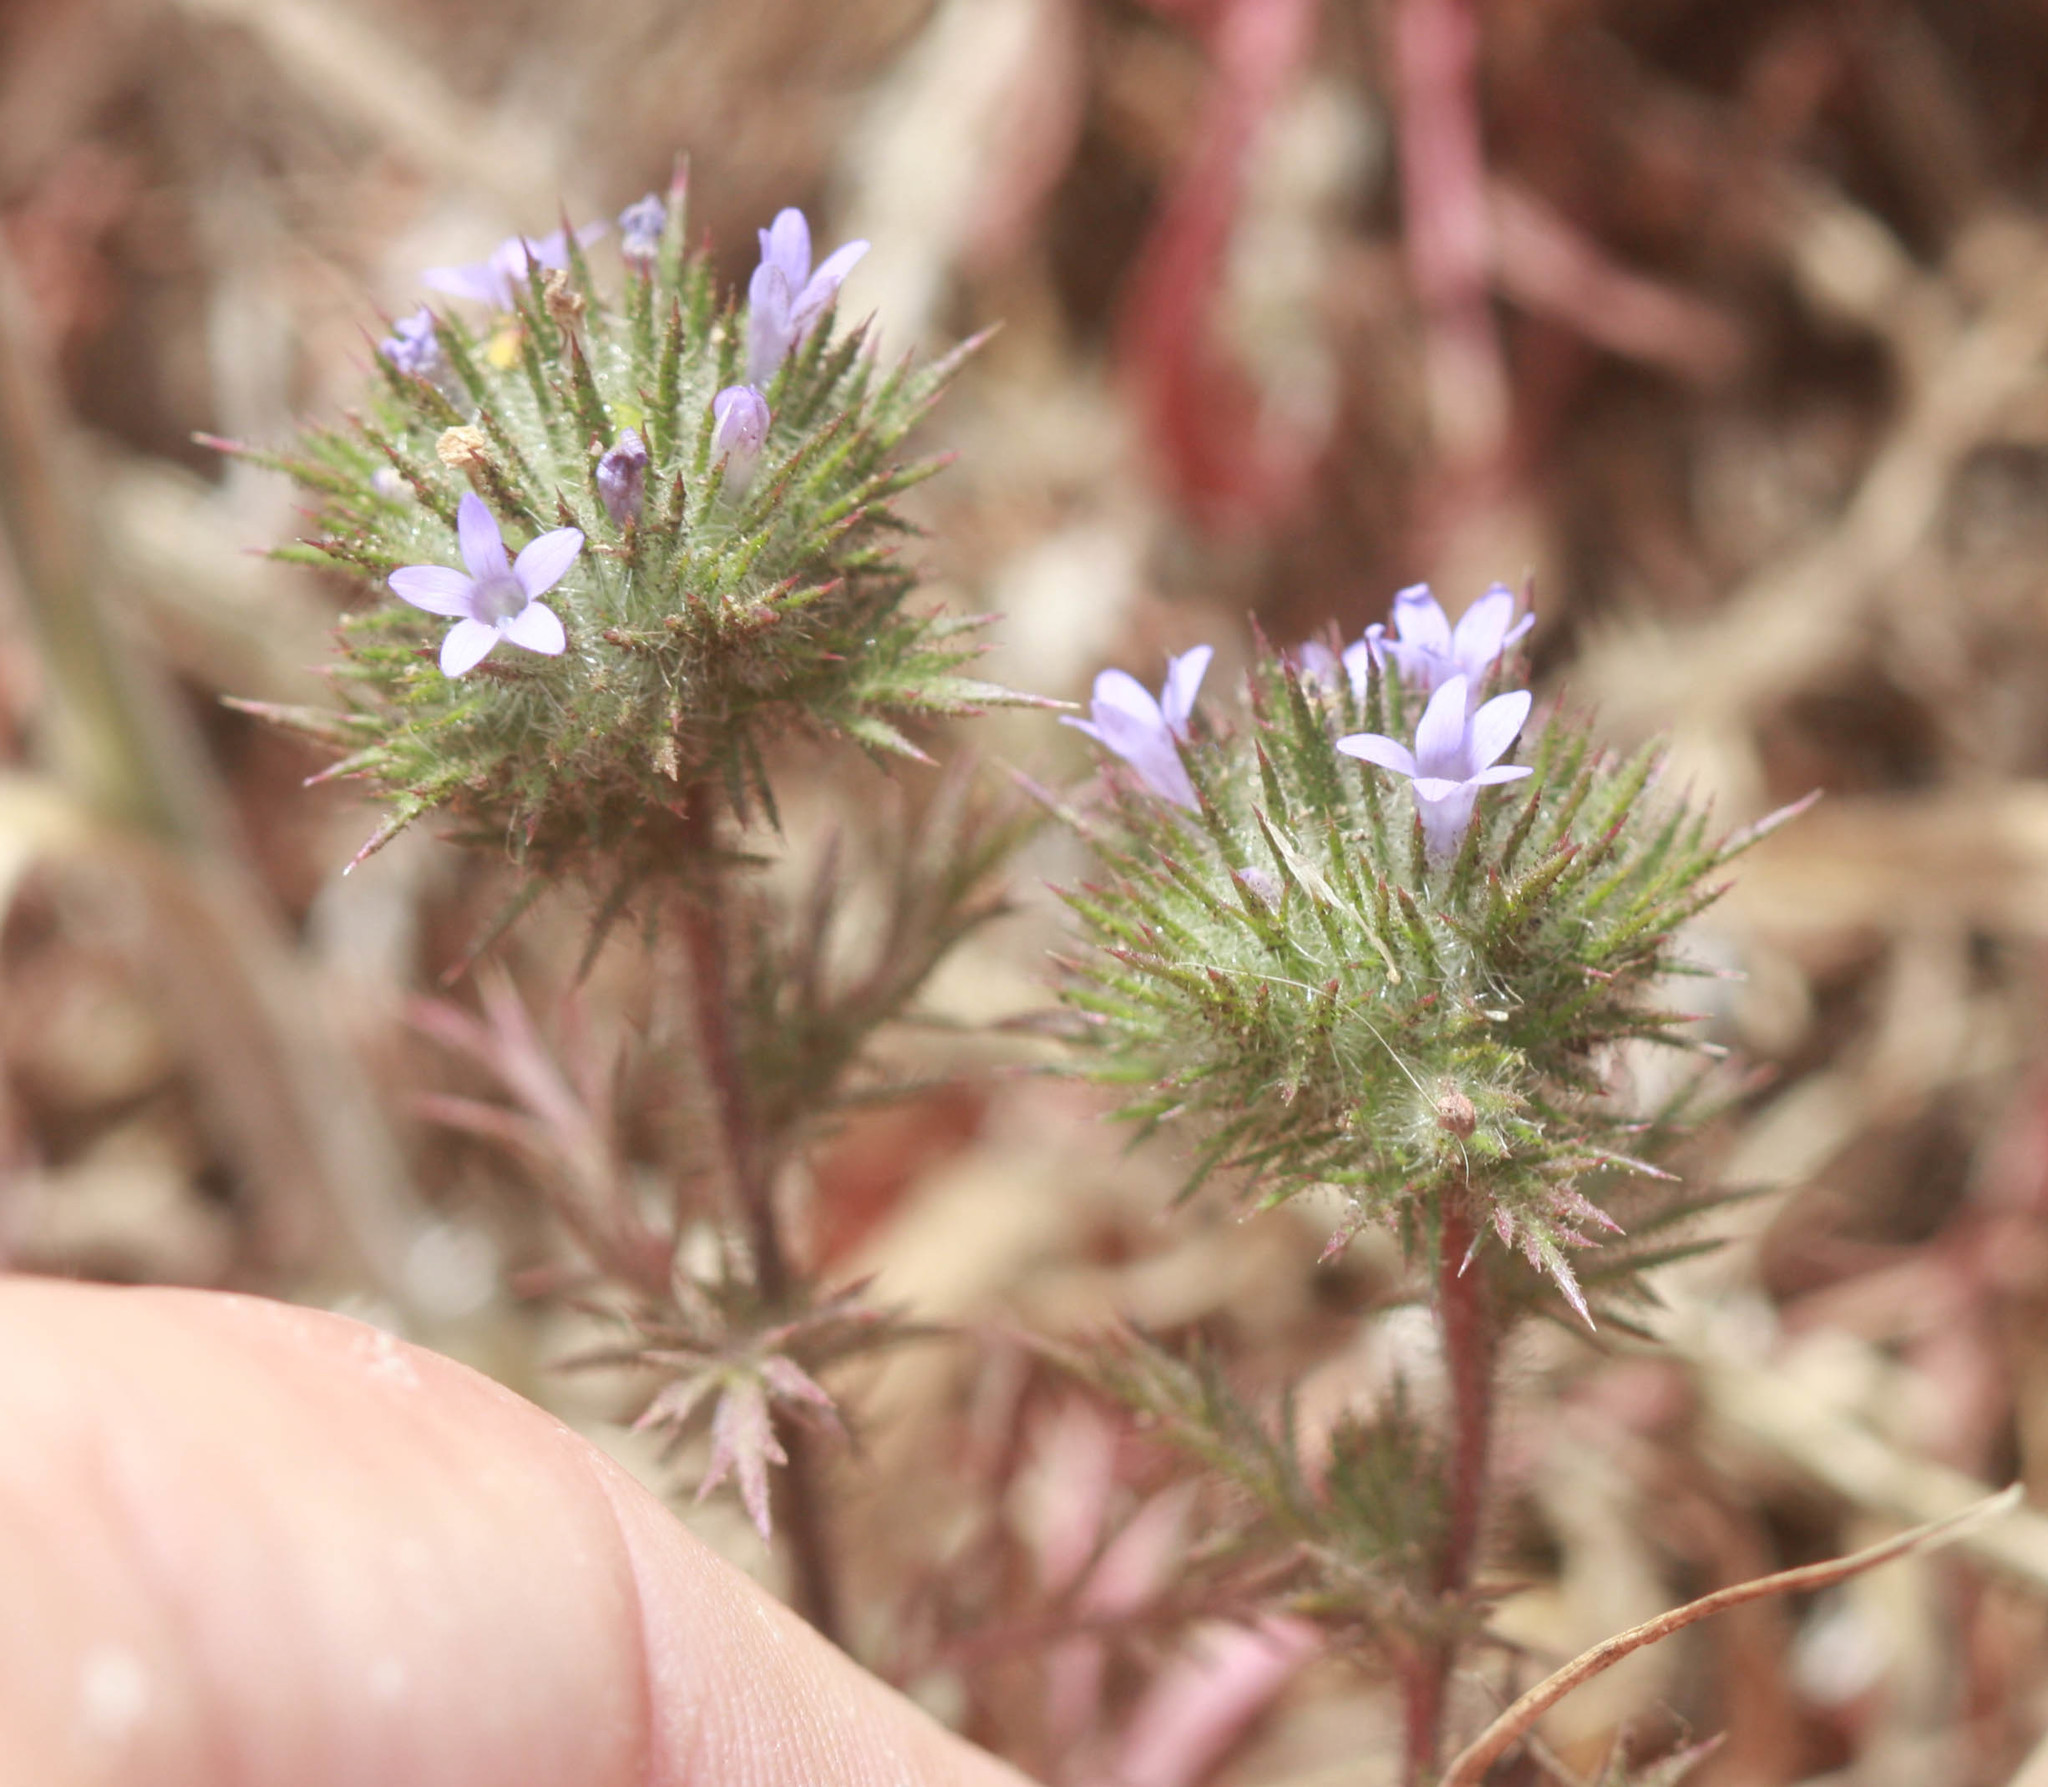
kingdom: Plantae
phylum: Tracheophyta
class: Magnoliopsida
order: Ericales
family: Polemoniaceae
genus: Navarretia
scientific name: Navarretia squarrosa
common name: Skunkweed
